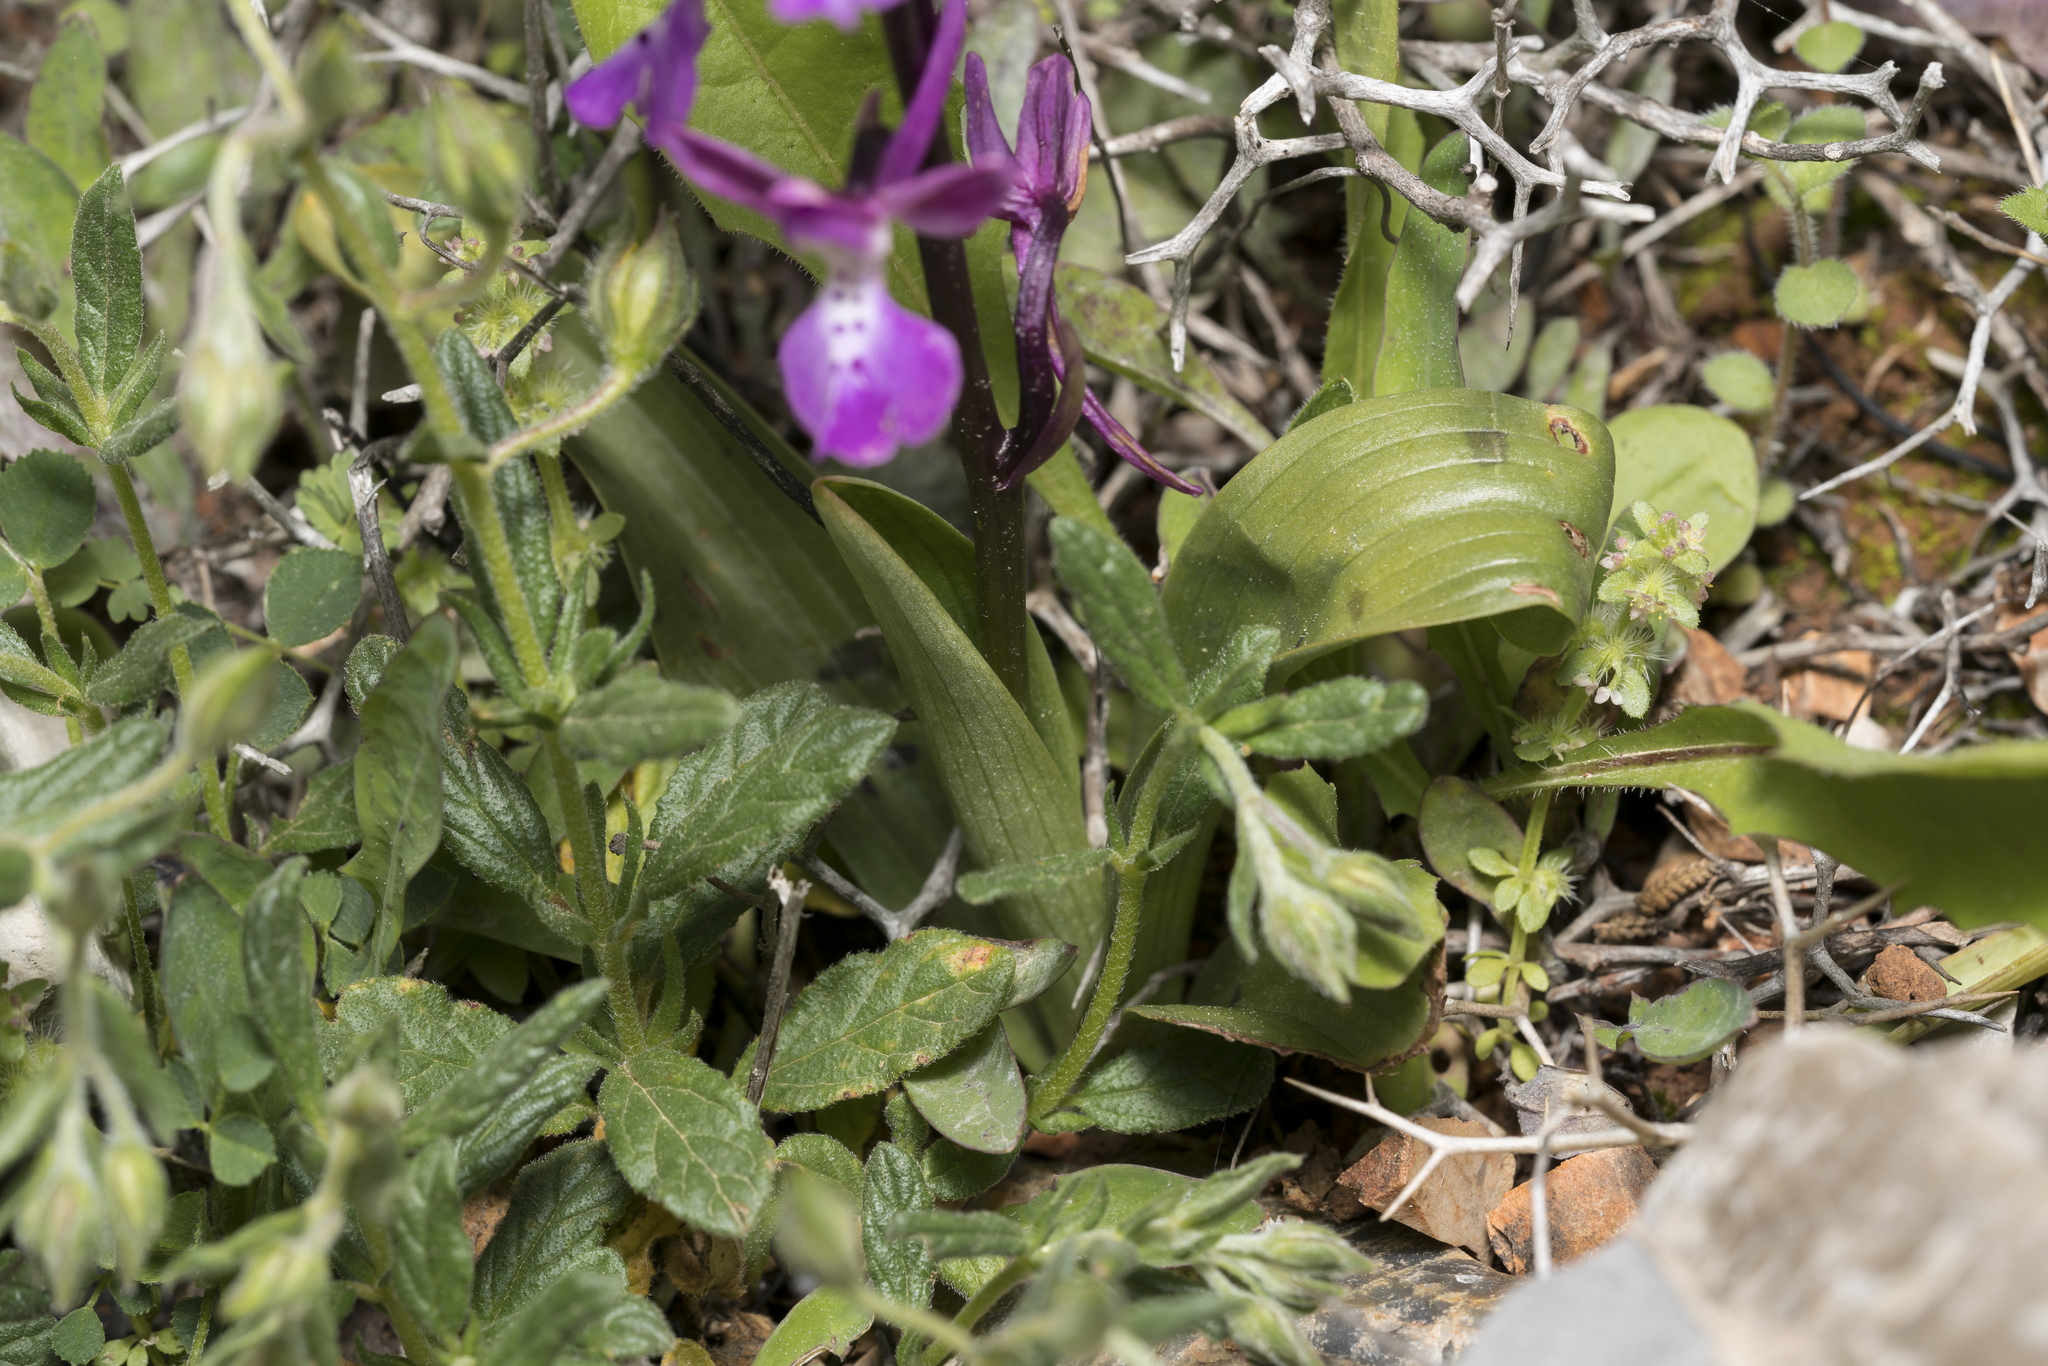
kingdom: Plantae
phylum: Tracheophyta
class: Liliopsida
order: Asparagales
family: Orchidaceae
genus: Orchis
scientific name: Orchis anatolica
